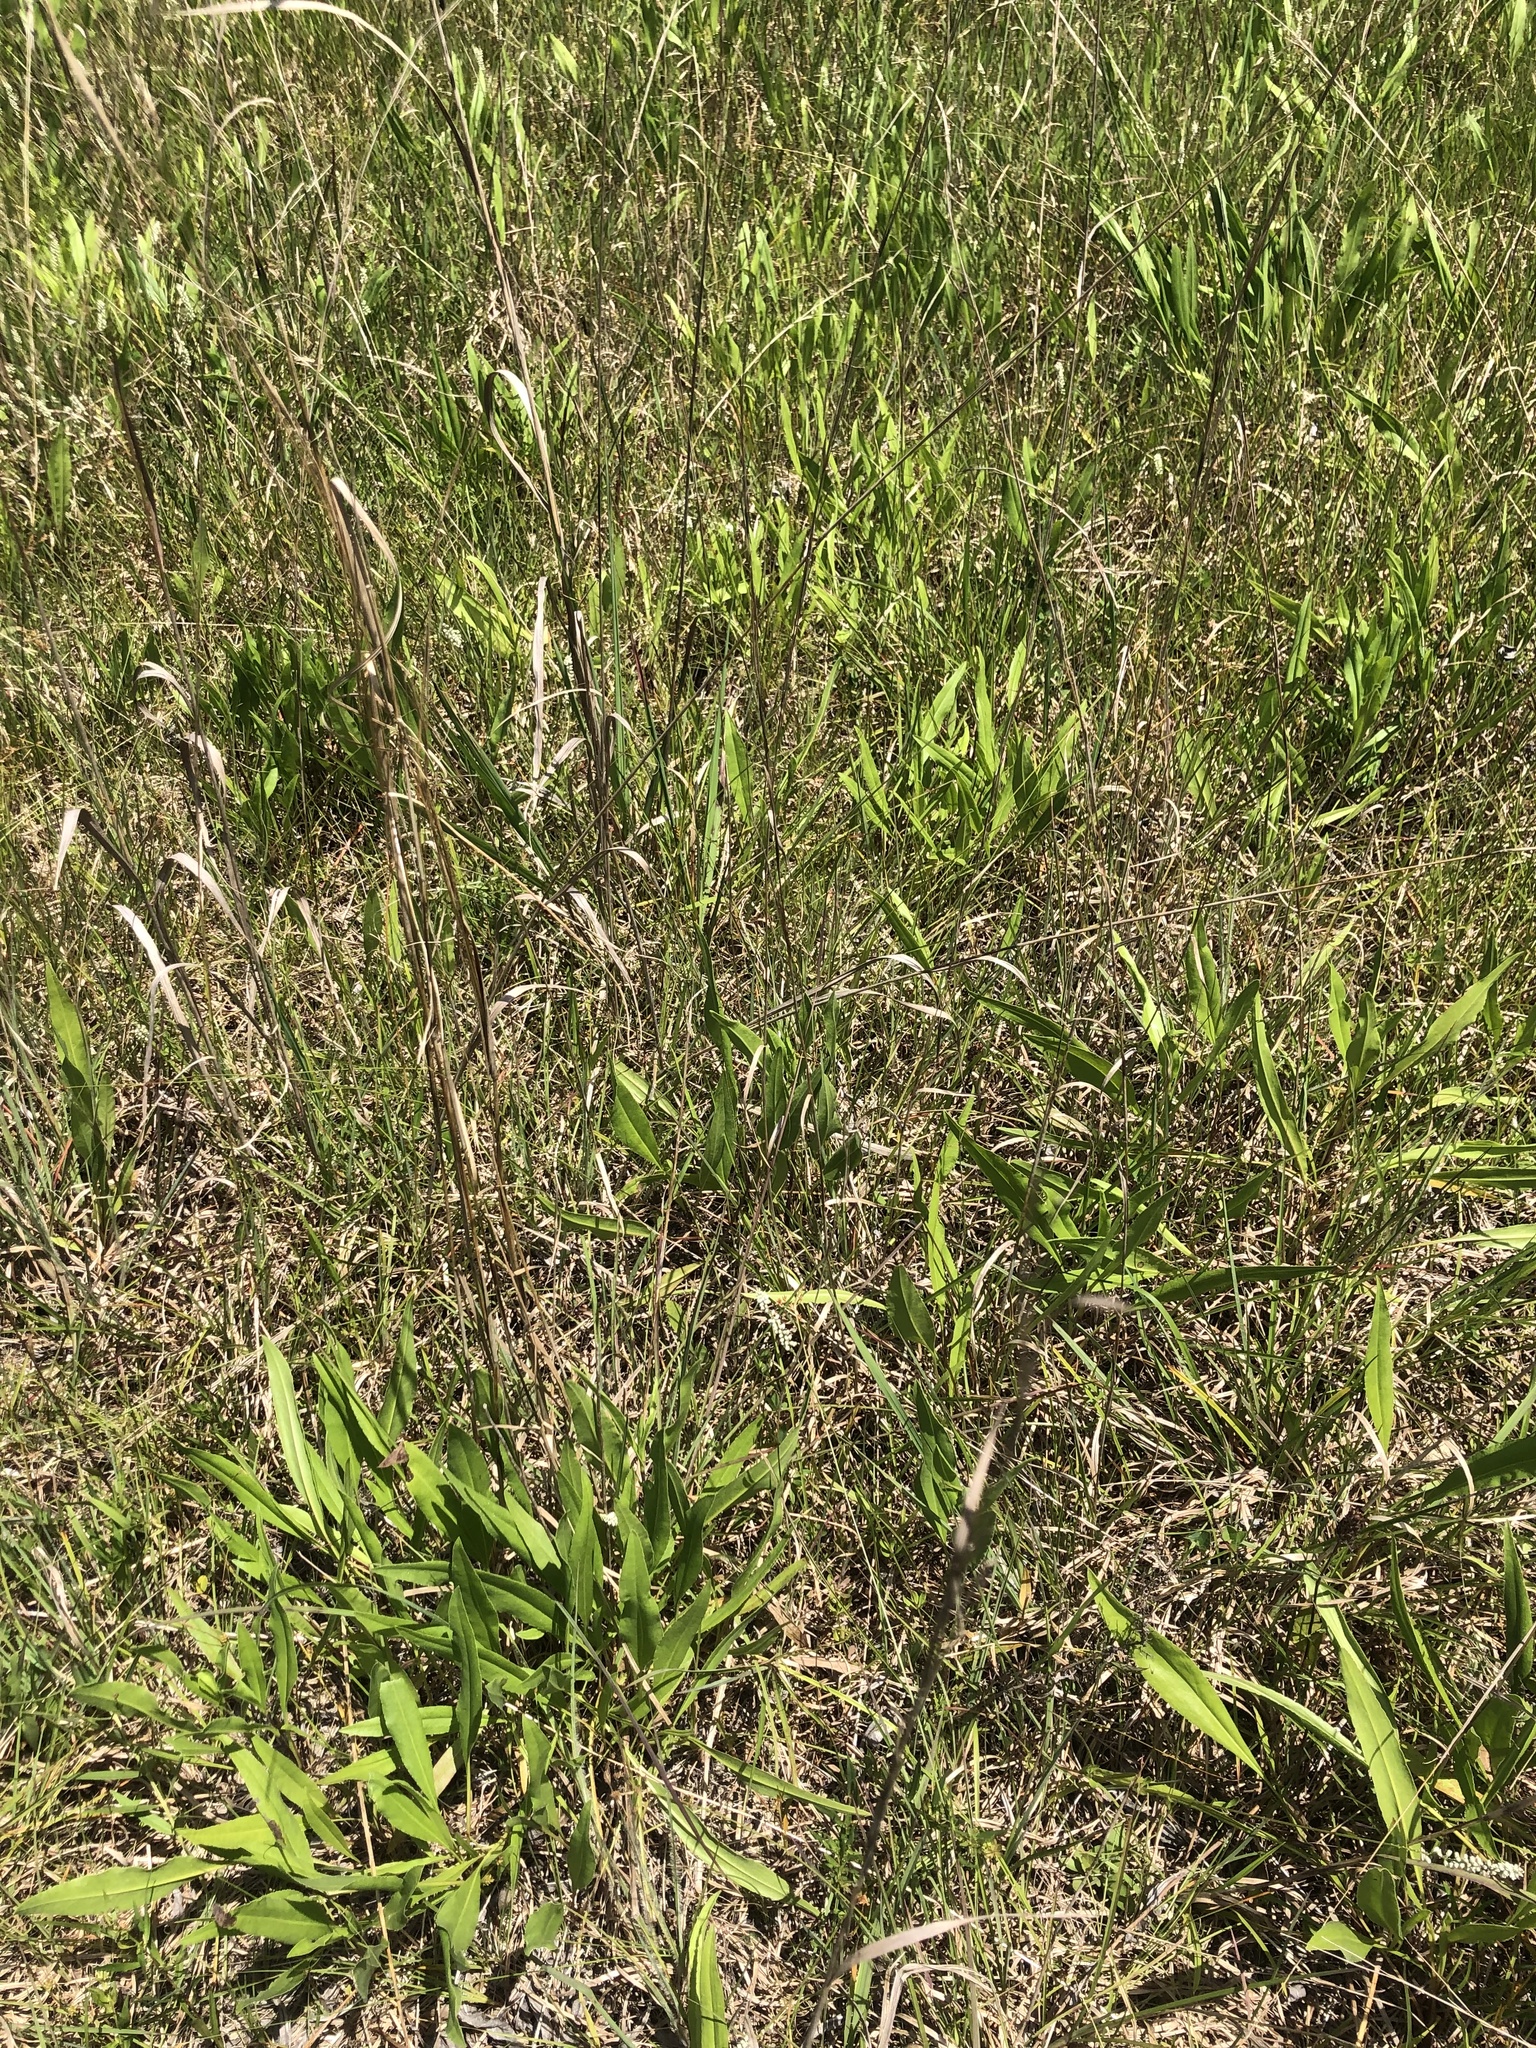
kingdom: Plantae
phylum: Tracheophyta
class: Magnoliopsida
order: Asterales
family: Asteraceae
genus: Solidago
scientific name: Solidago rigida
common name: Rigid goldenrod
